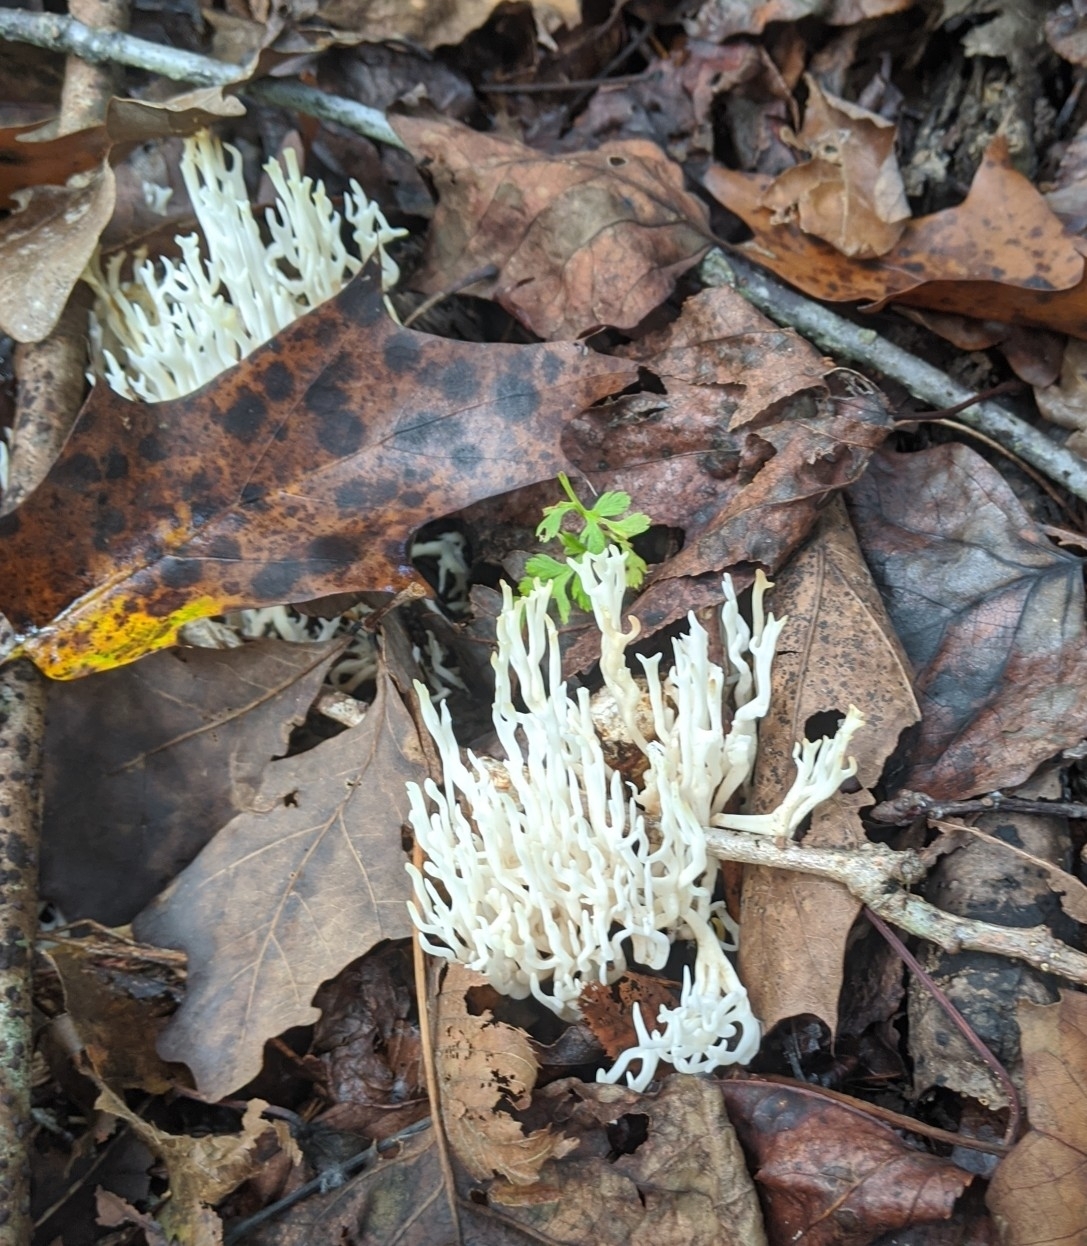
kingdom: Fungi
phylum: Basidiomycota
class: Agaricomycetes
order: Agaricales
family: Clavariaceae
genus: Ramariopsis
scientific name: Ramariopsis kunzei
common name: Ivory coral
